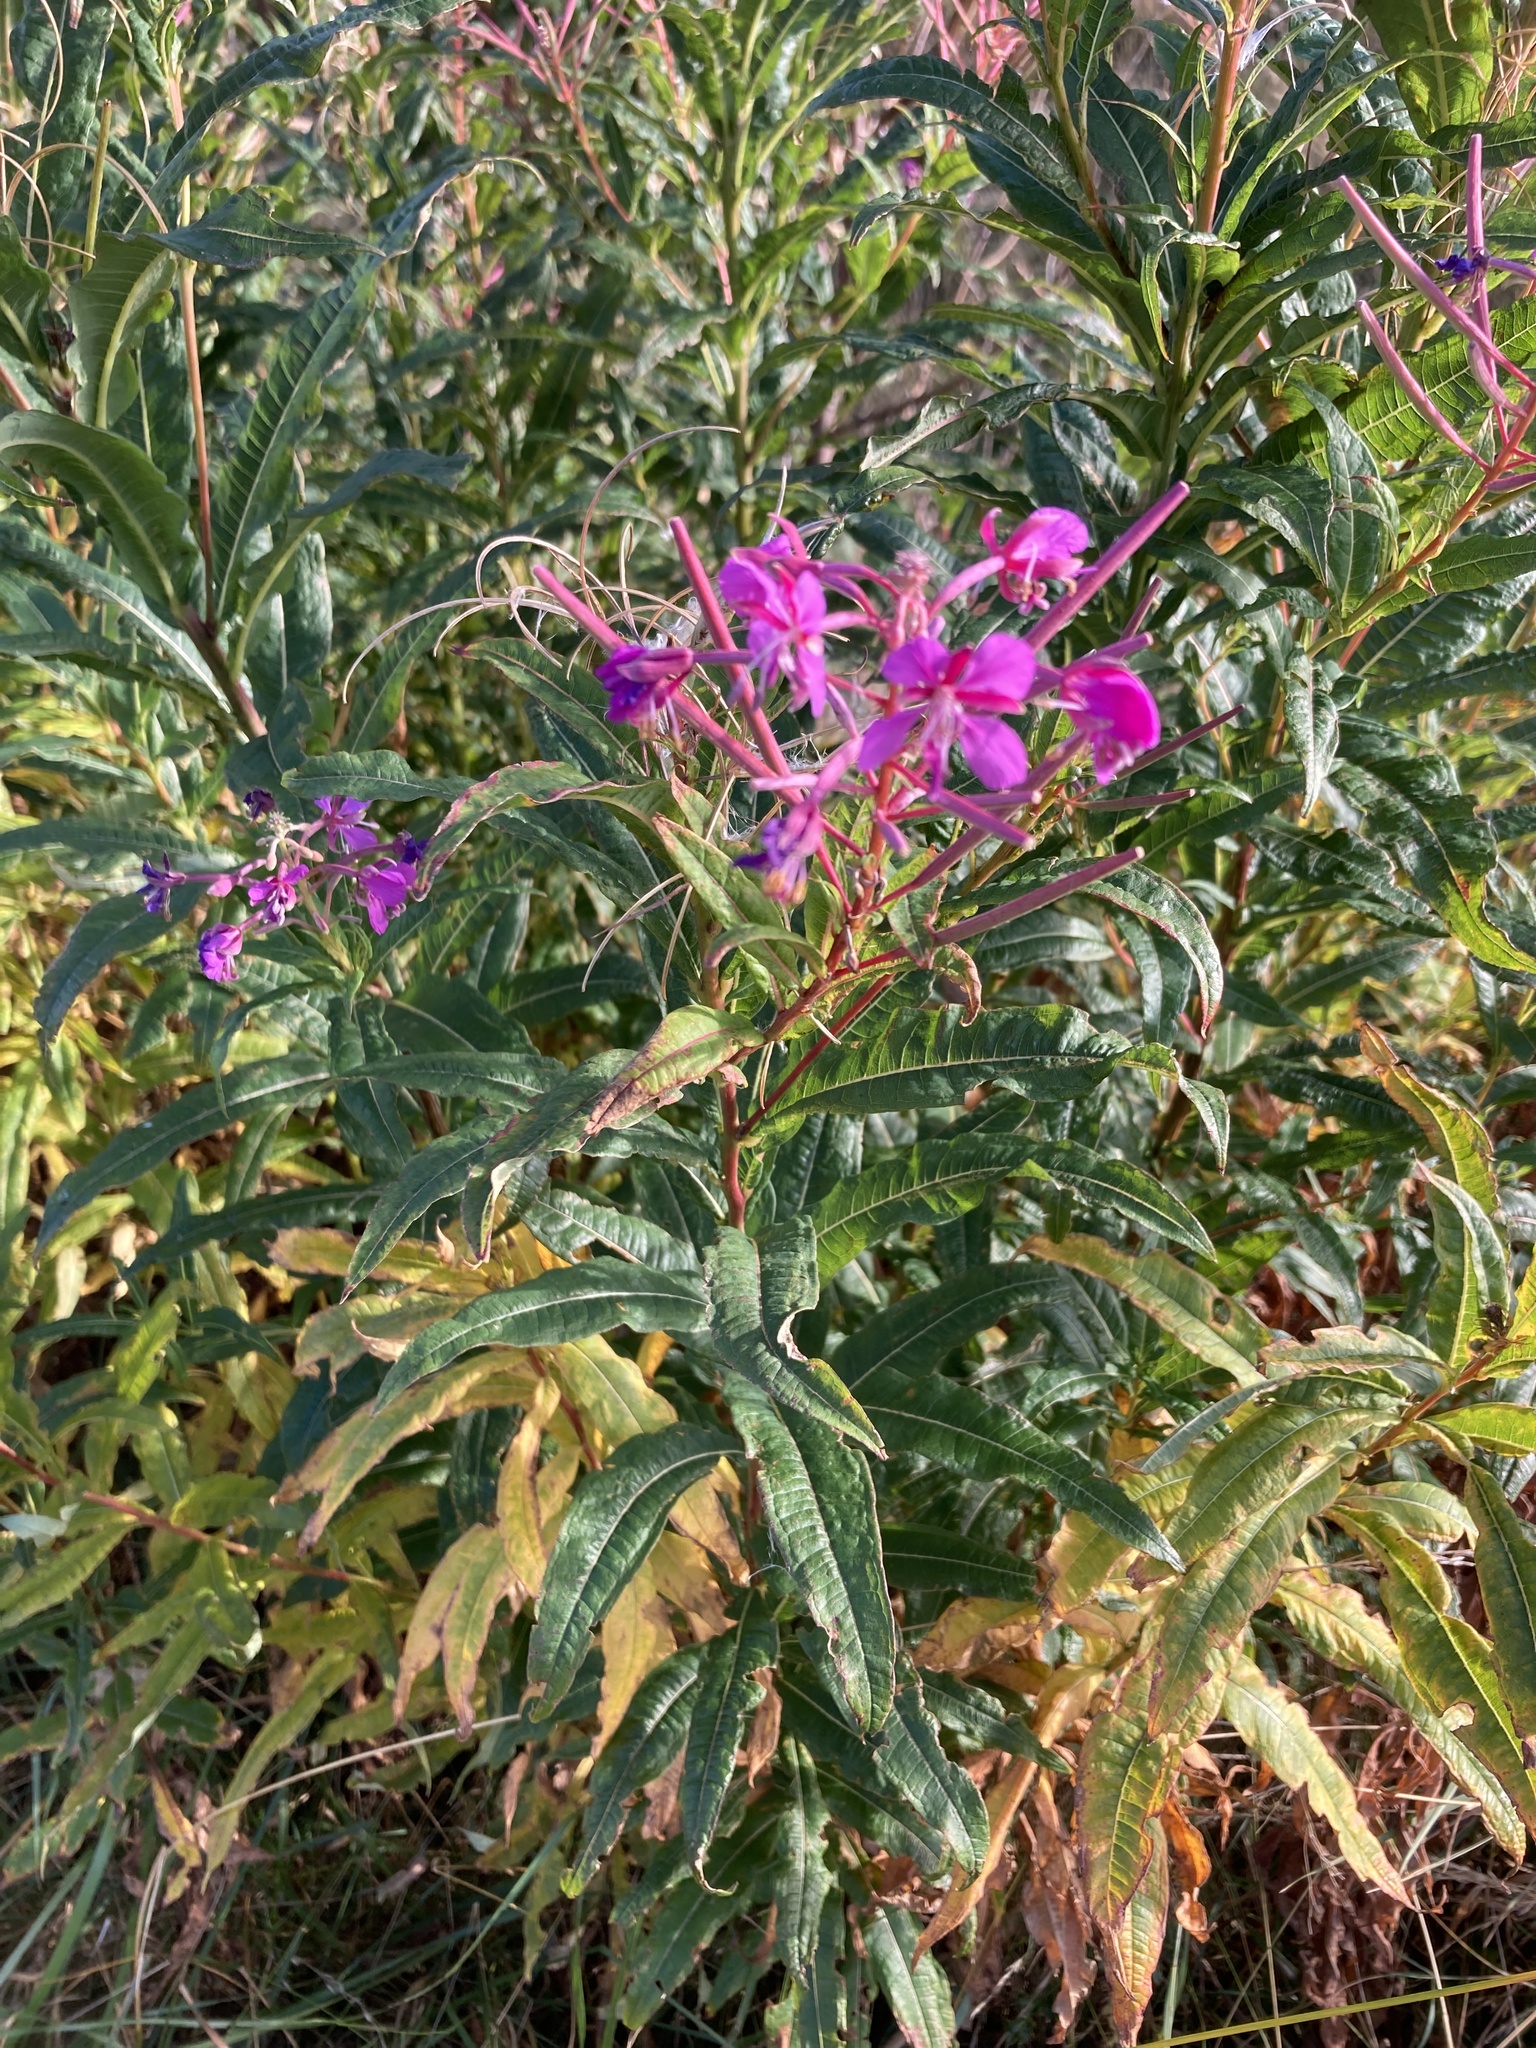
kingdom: Plantae
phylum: Tracheophyta
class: Magnoliopsida
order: Myrtales
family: Onagraceae
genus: Chamaenerion
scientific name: Chamaenerion angustifolium
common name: Fireweed
